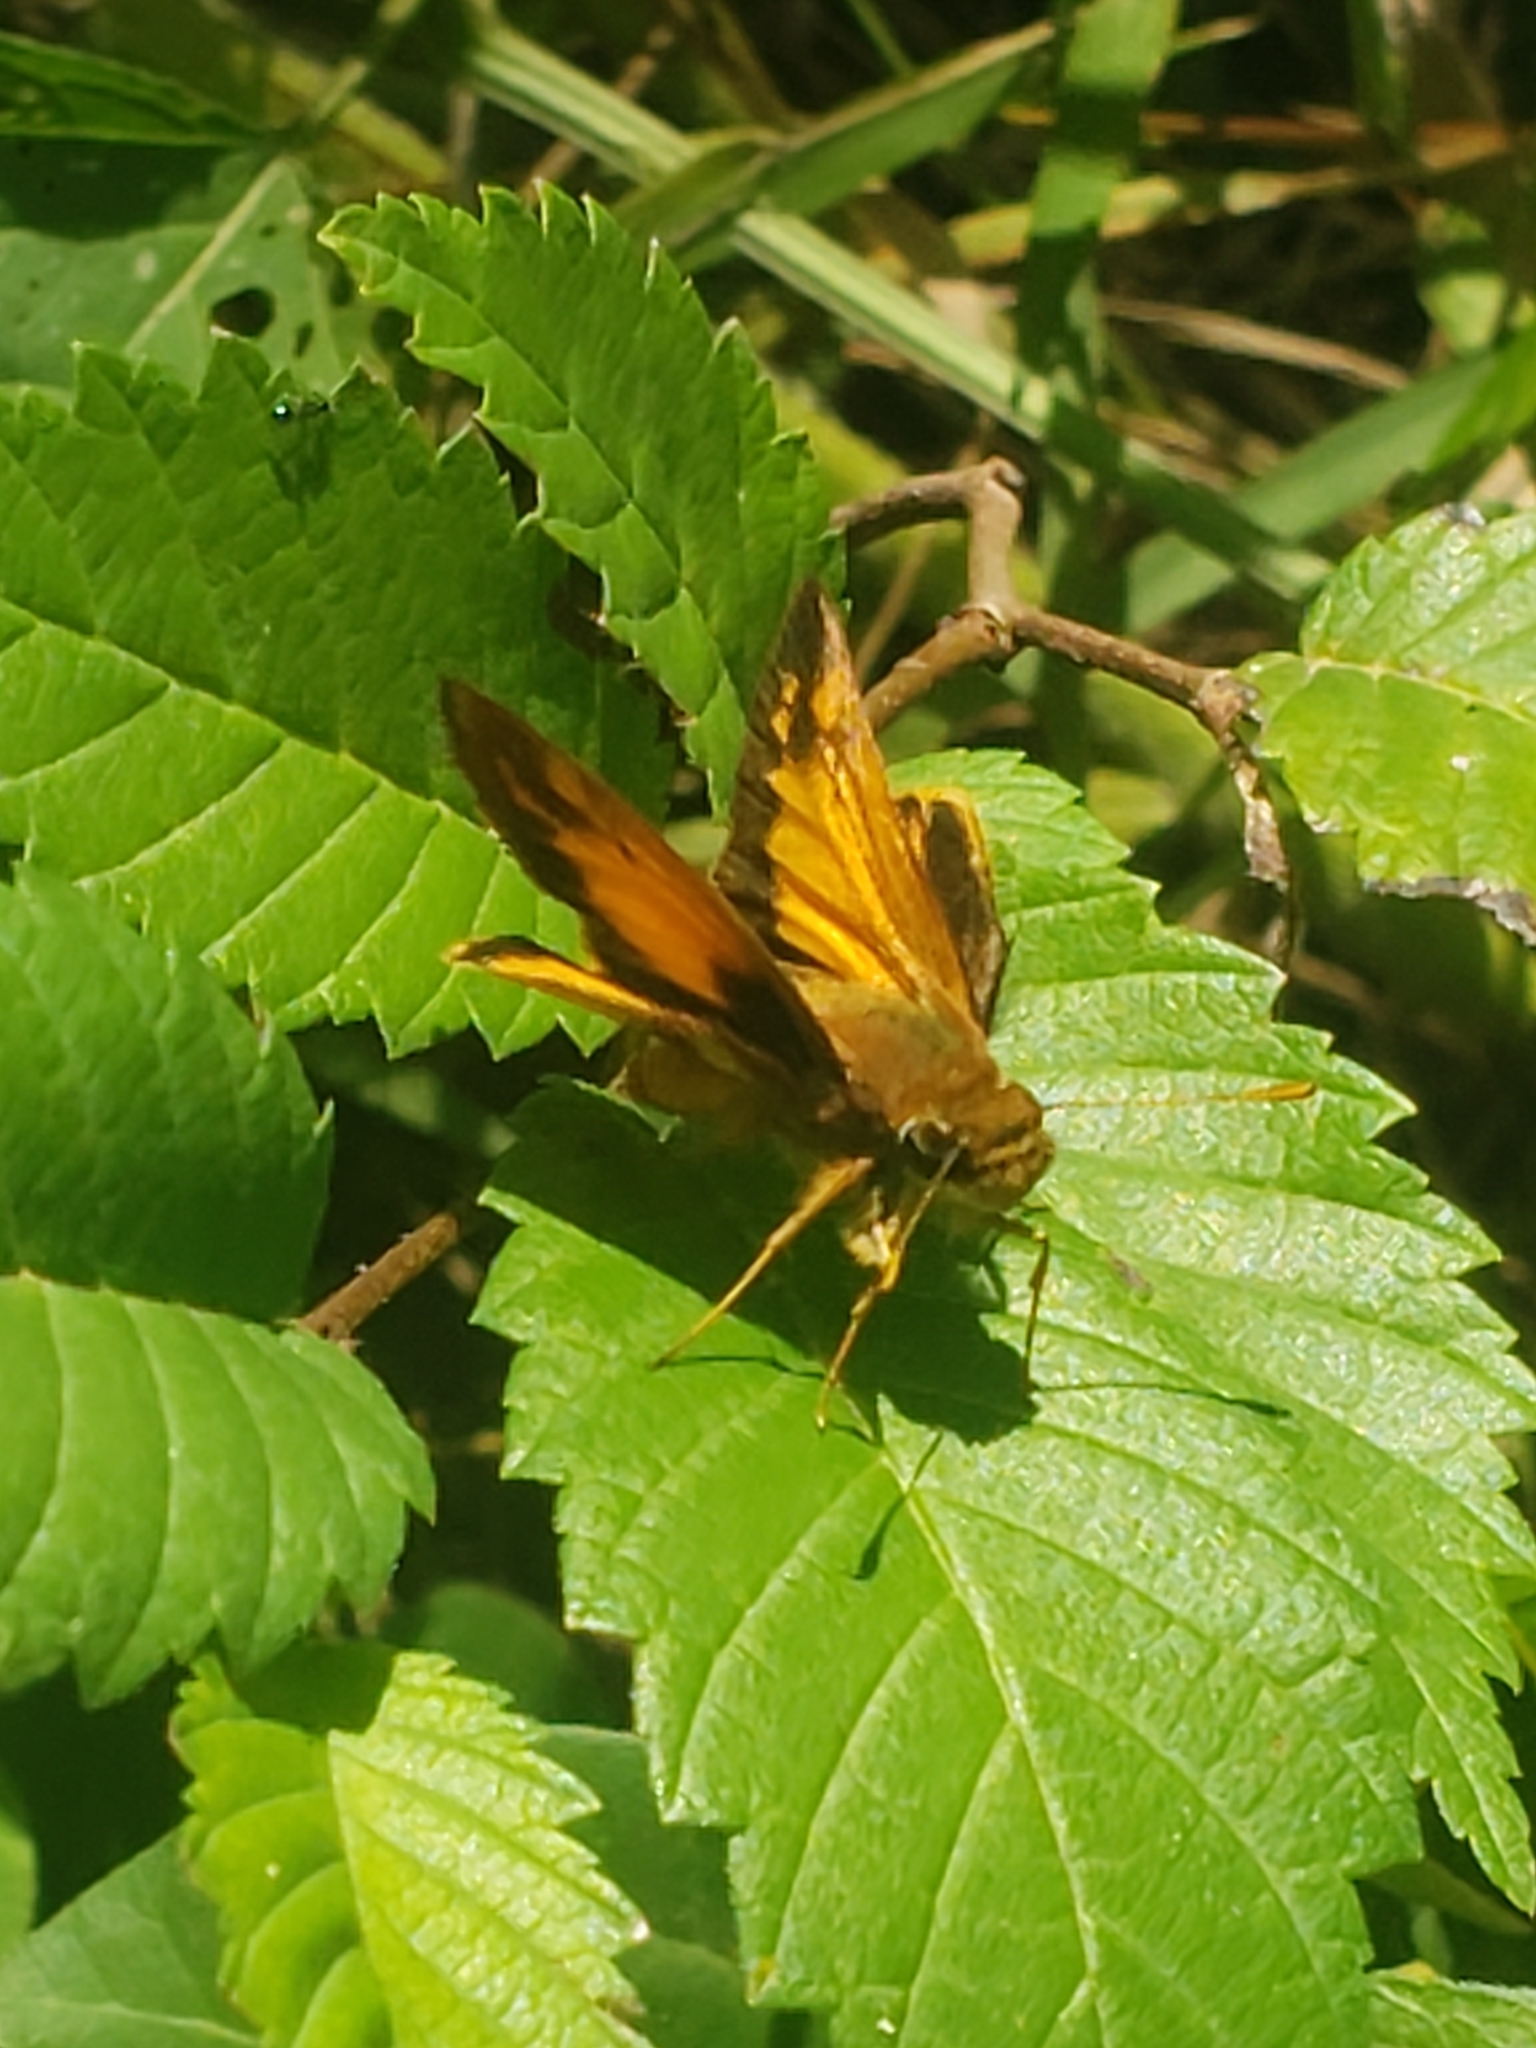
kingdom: Animalia
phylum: Arthropoda
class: Insecta
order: Lepidoptera
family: Hesperiidae
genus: Lon
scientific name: Lon zabulon
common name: Zabulon skipper
